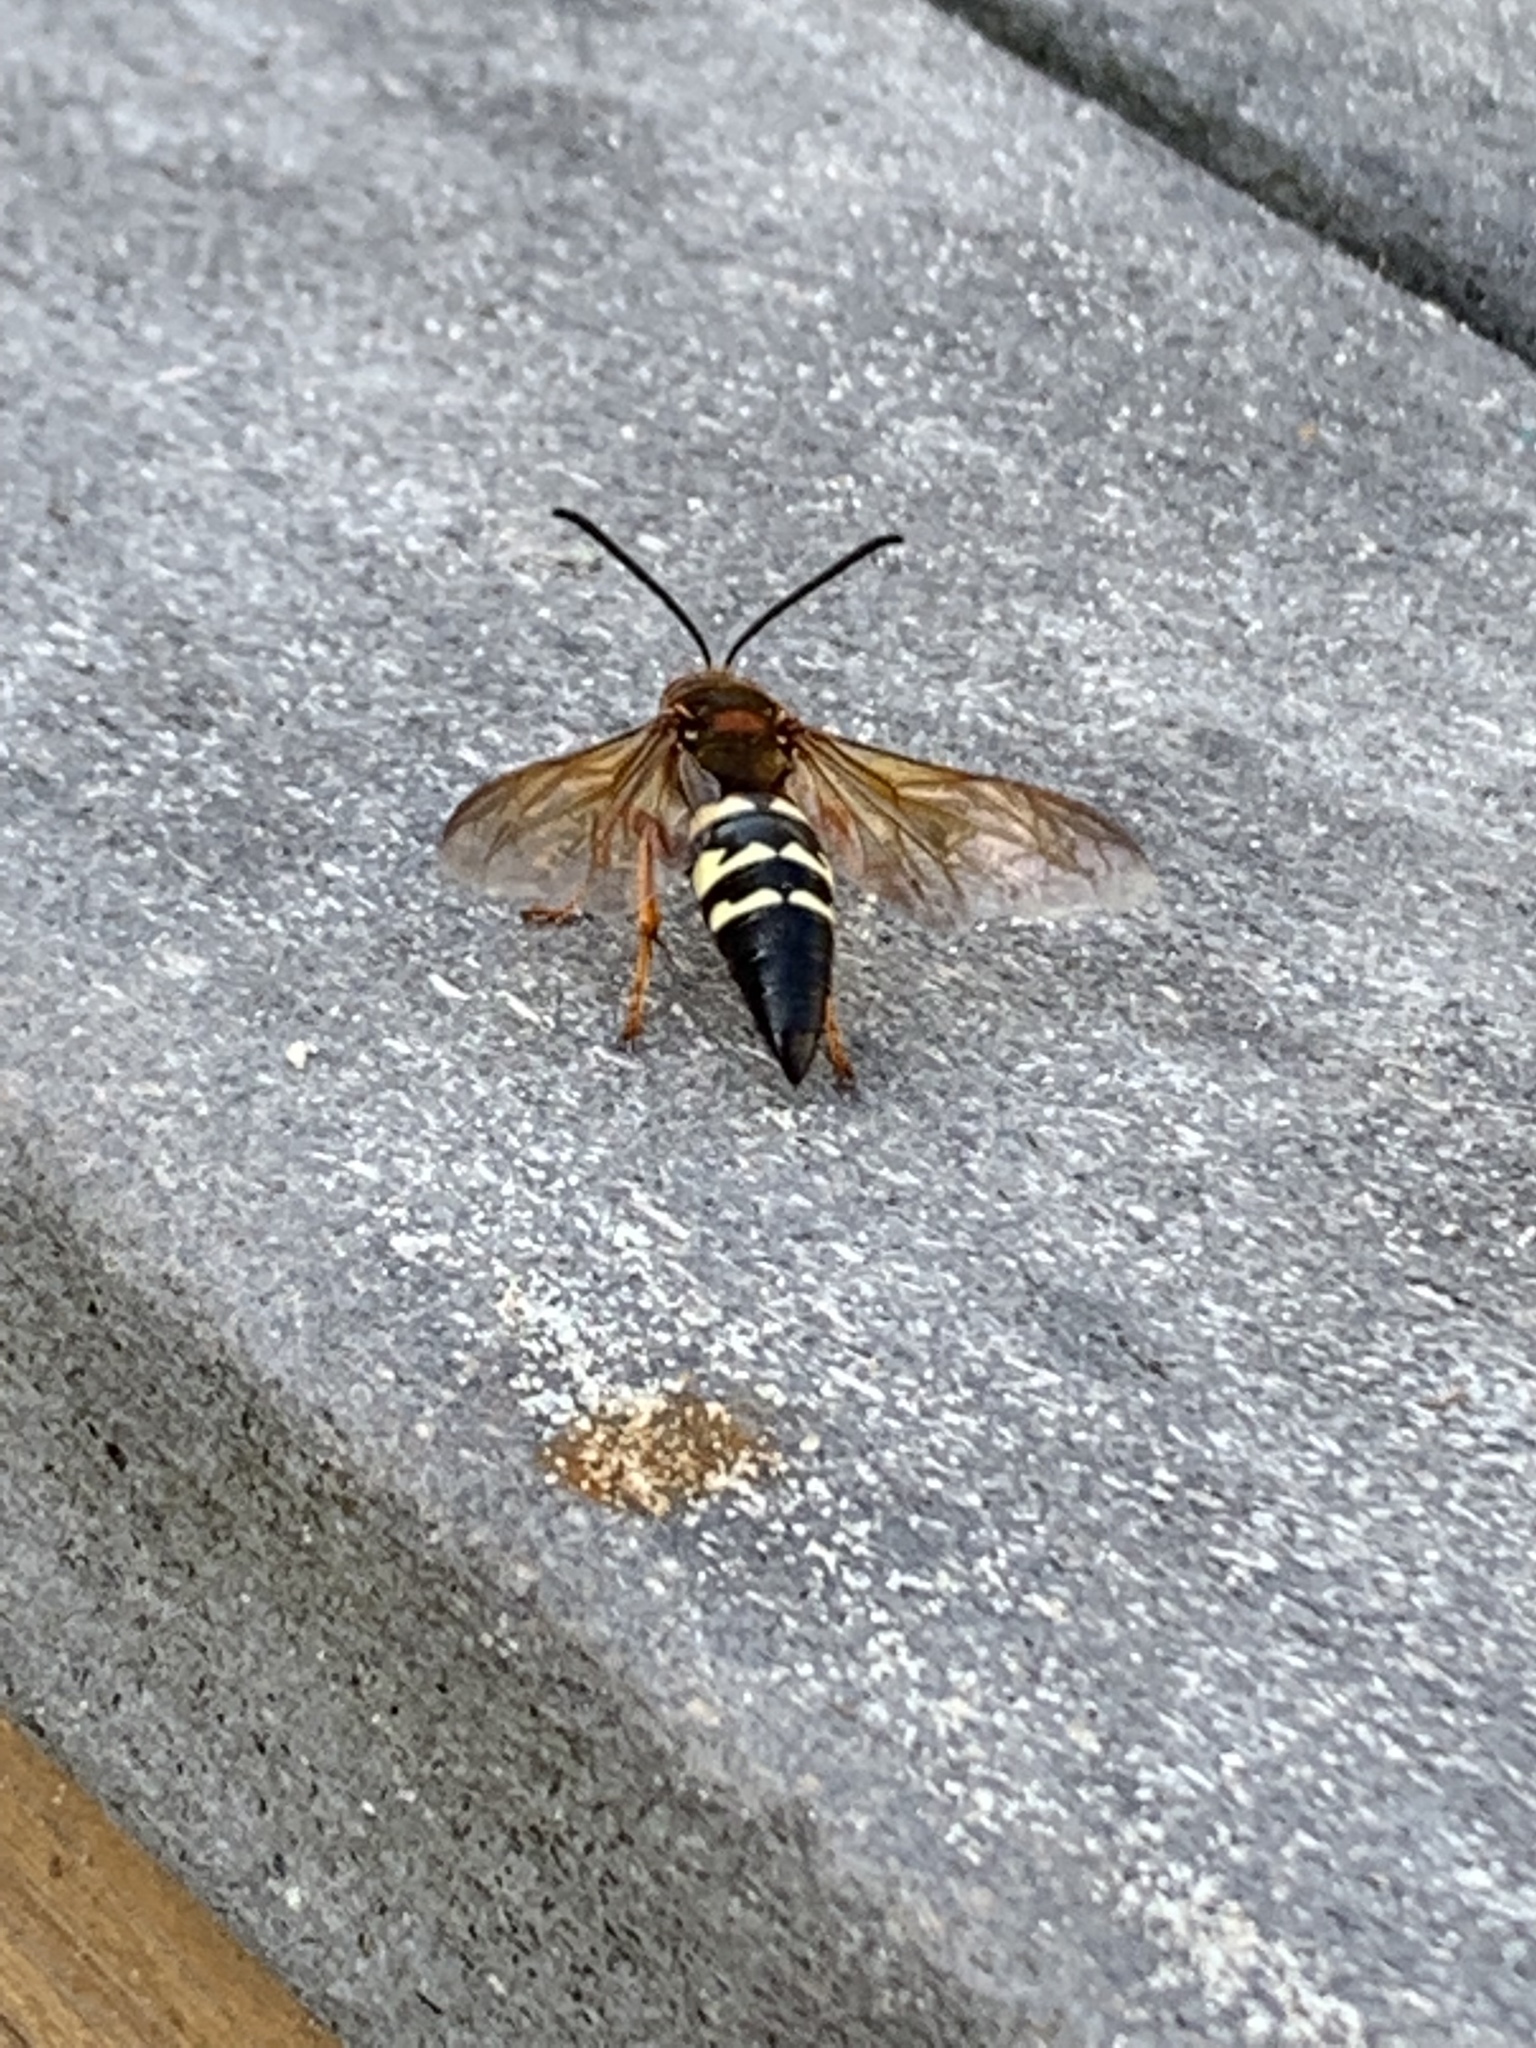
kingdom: Animalia
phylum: Arthropoda
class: Insecta
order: Hymenoptera
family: Crabronidae
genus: Sphecius
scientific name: Sphecius speciosus
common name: Cicada killer
